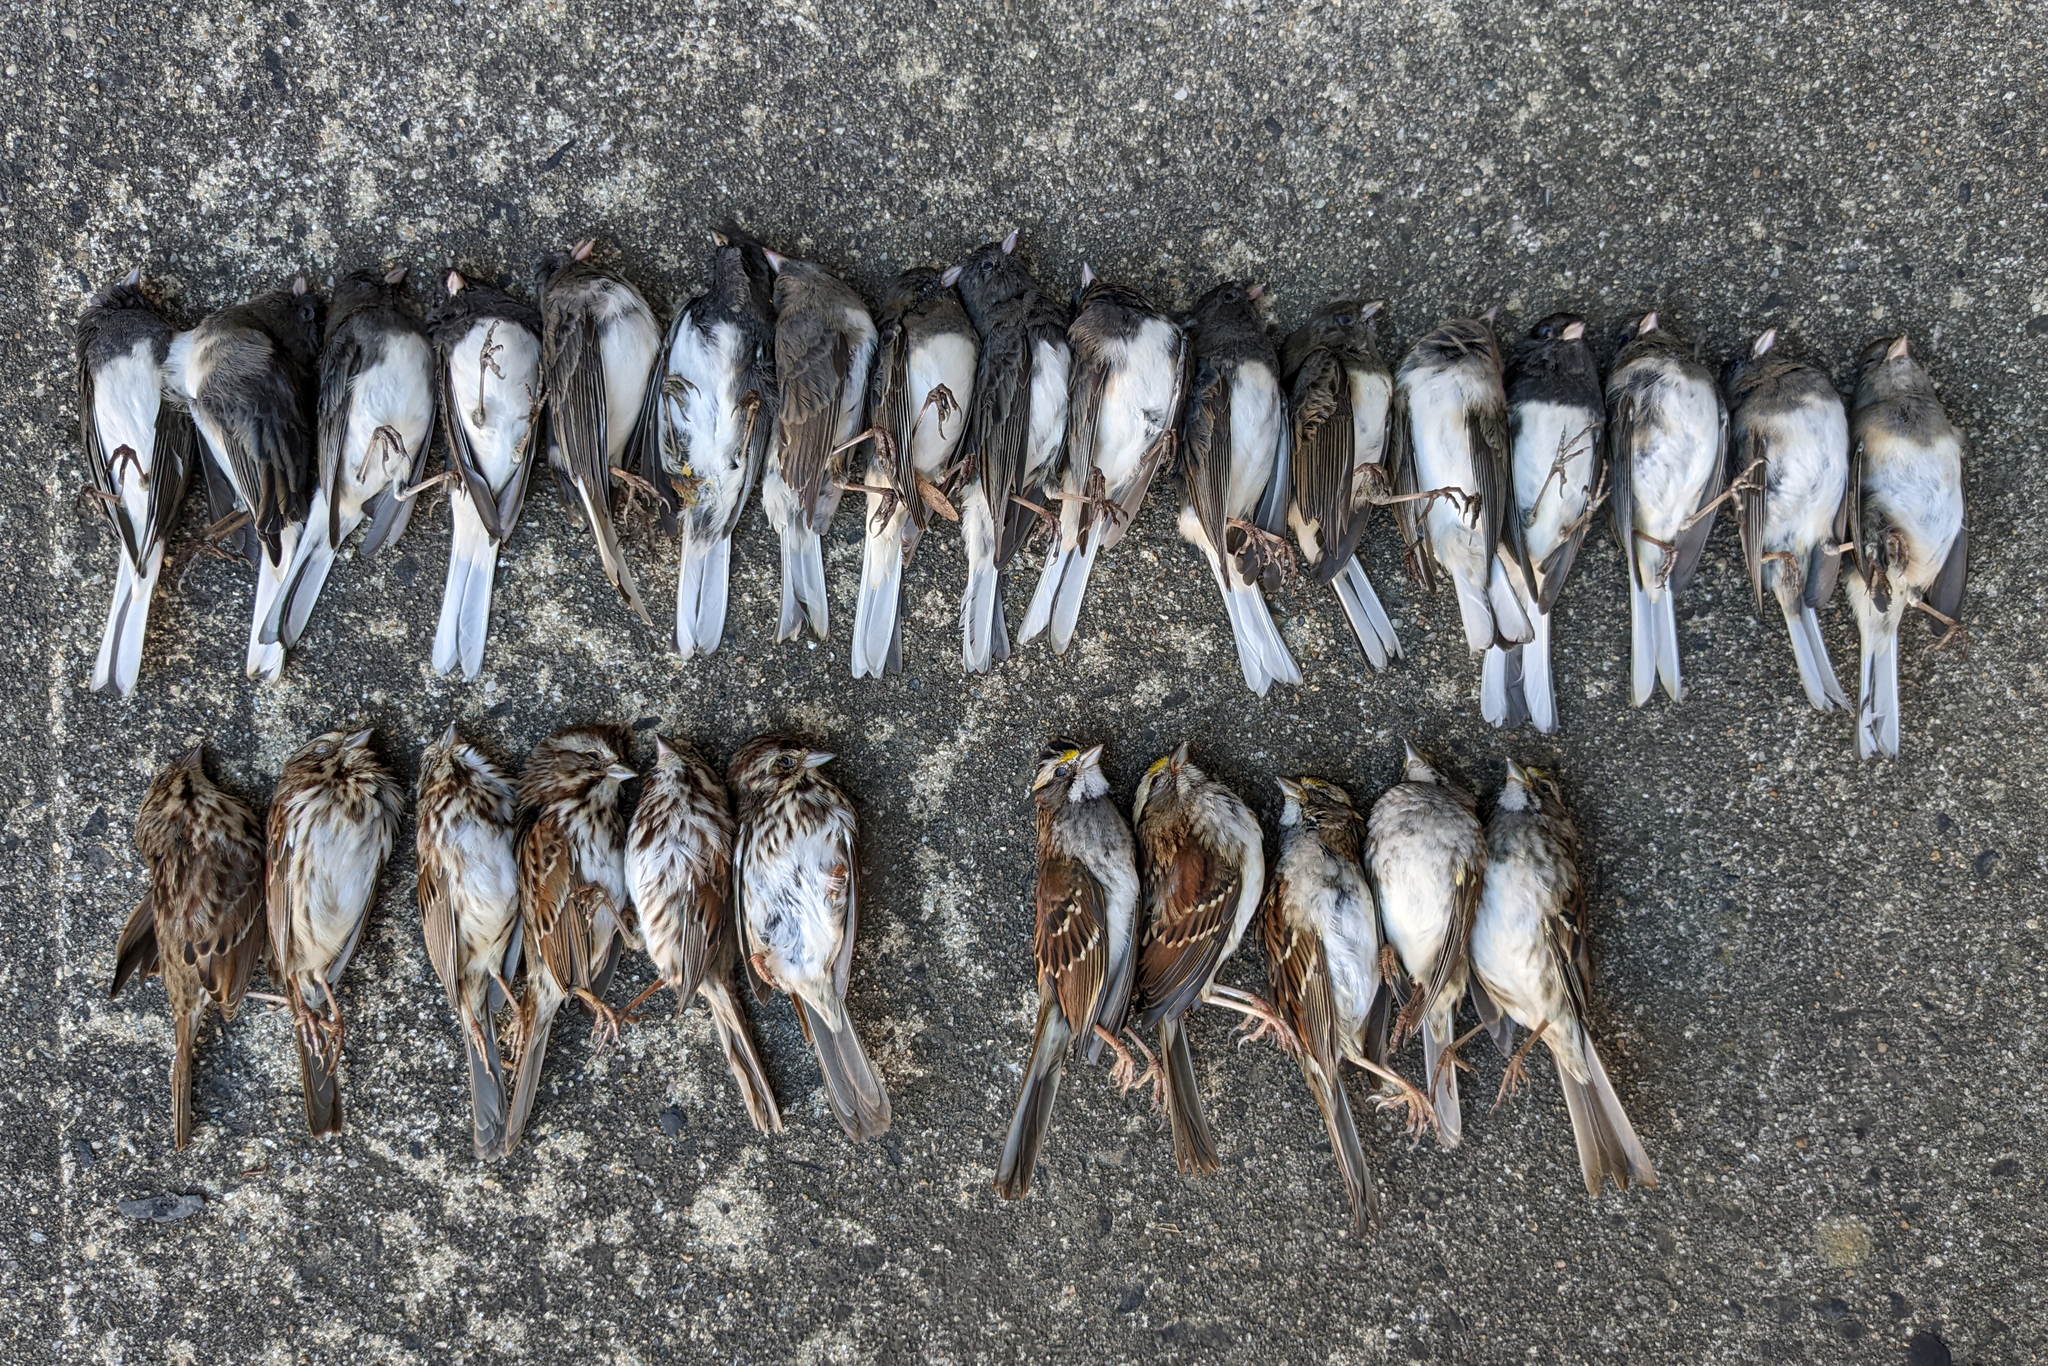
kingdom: Animalia
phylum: Chordata
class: Aves
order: Passeriformes
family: Passerellidae
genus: Junco
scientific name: Junco hyemalis
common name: Dark-eyed junco
